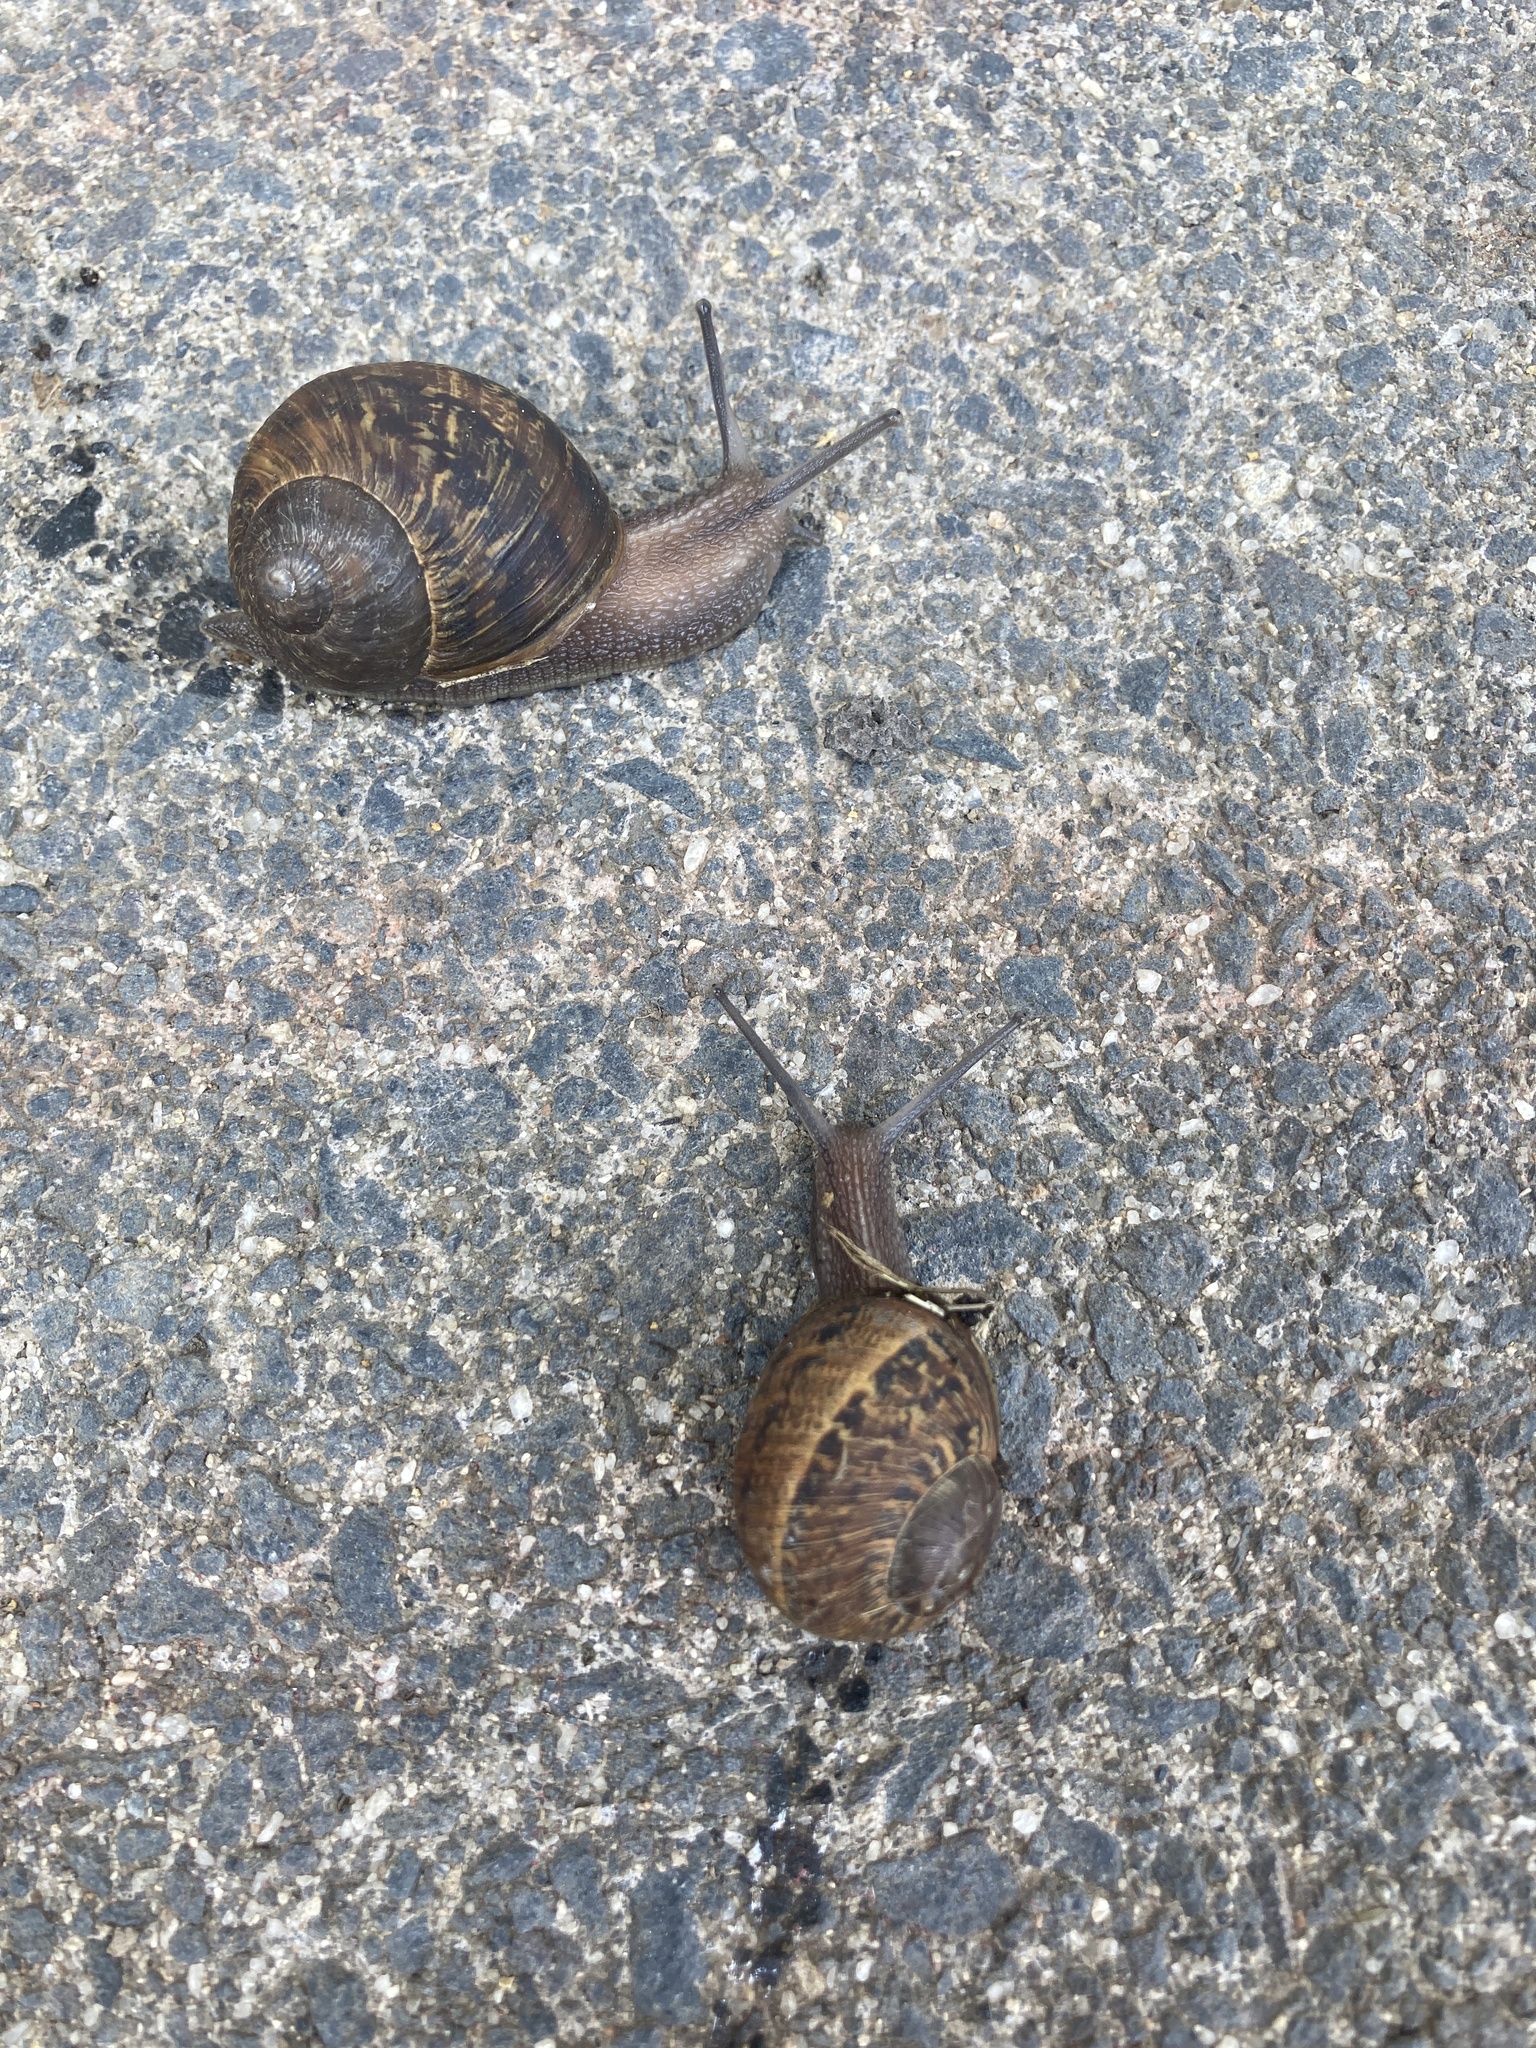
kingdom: Animalia
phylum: Mollusca
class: Gastropoda
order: Stylommatophora
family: Helicidae
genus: Cornu
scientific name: Cornu aspersum
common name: Brown garden snail
